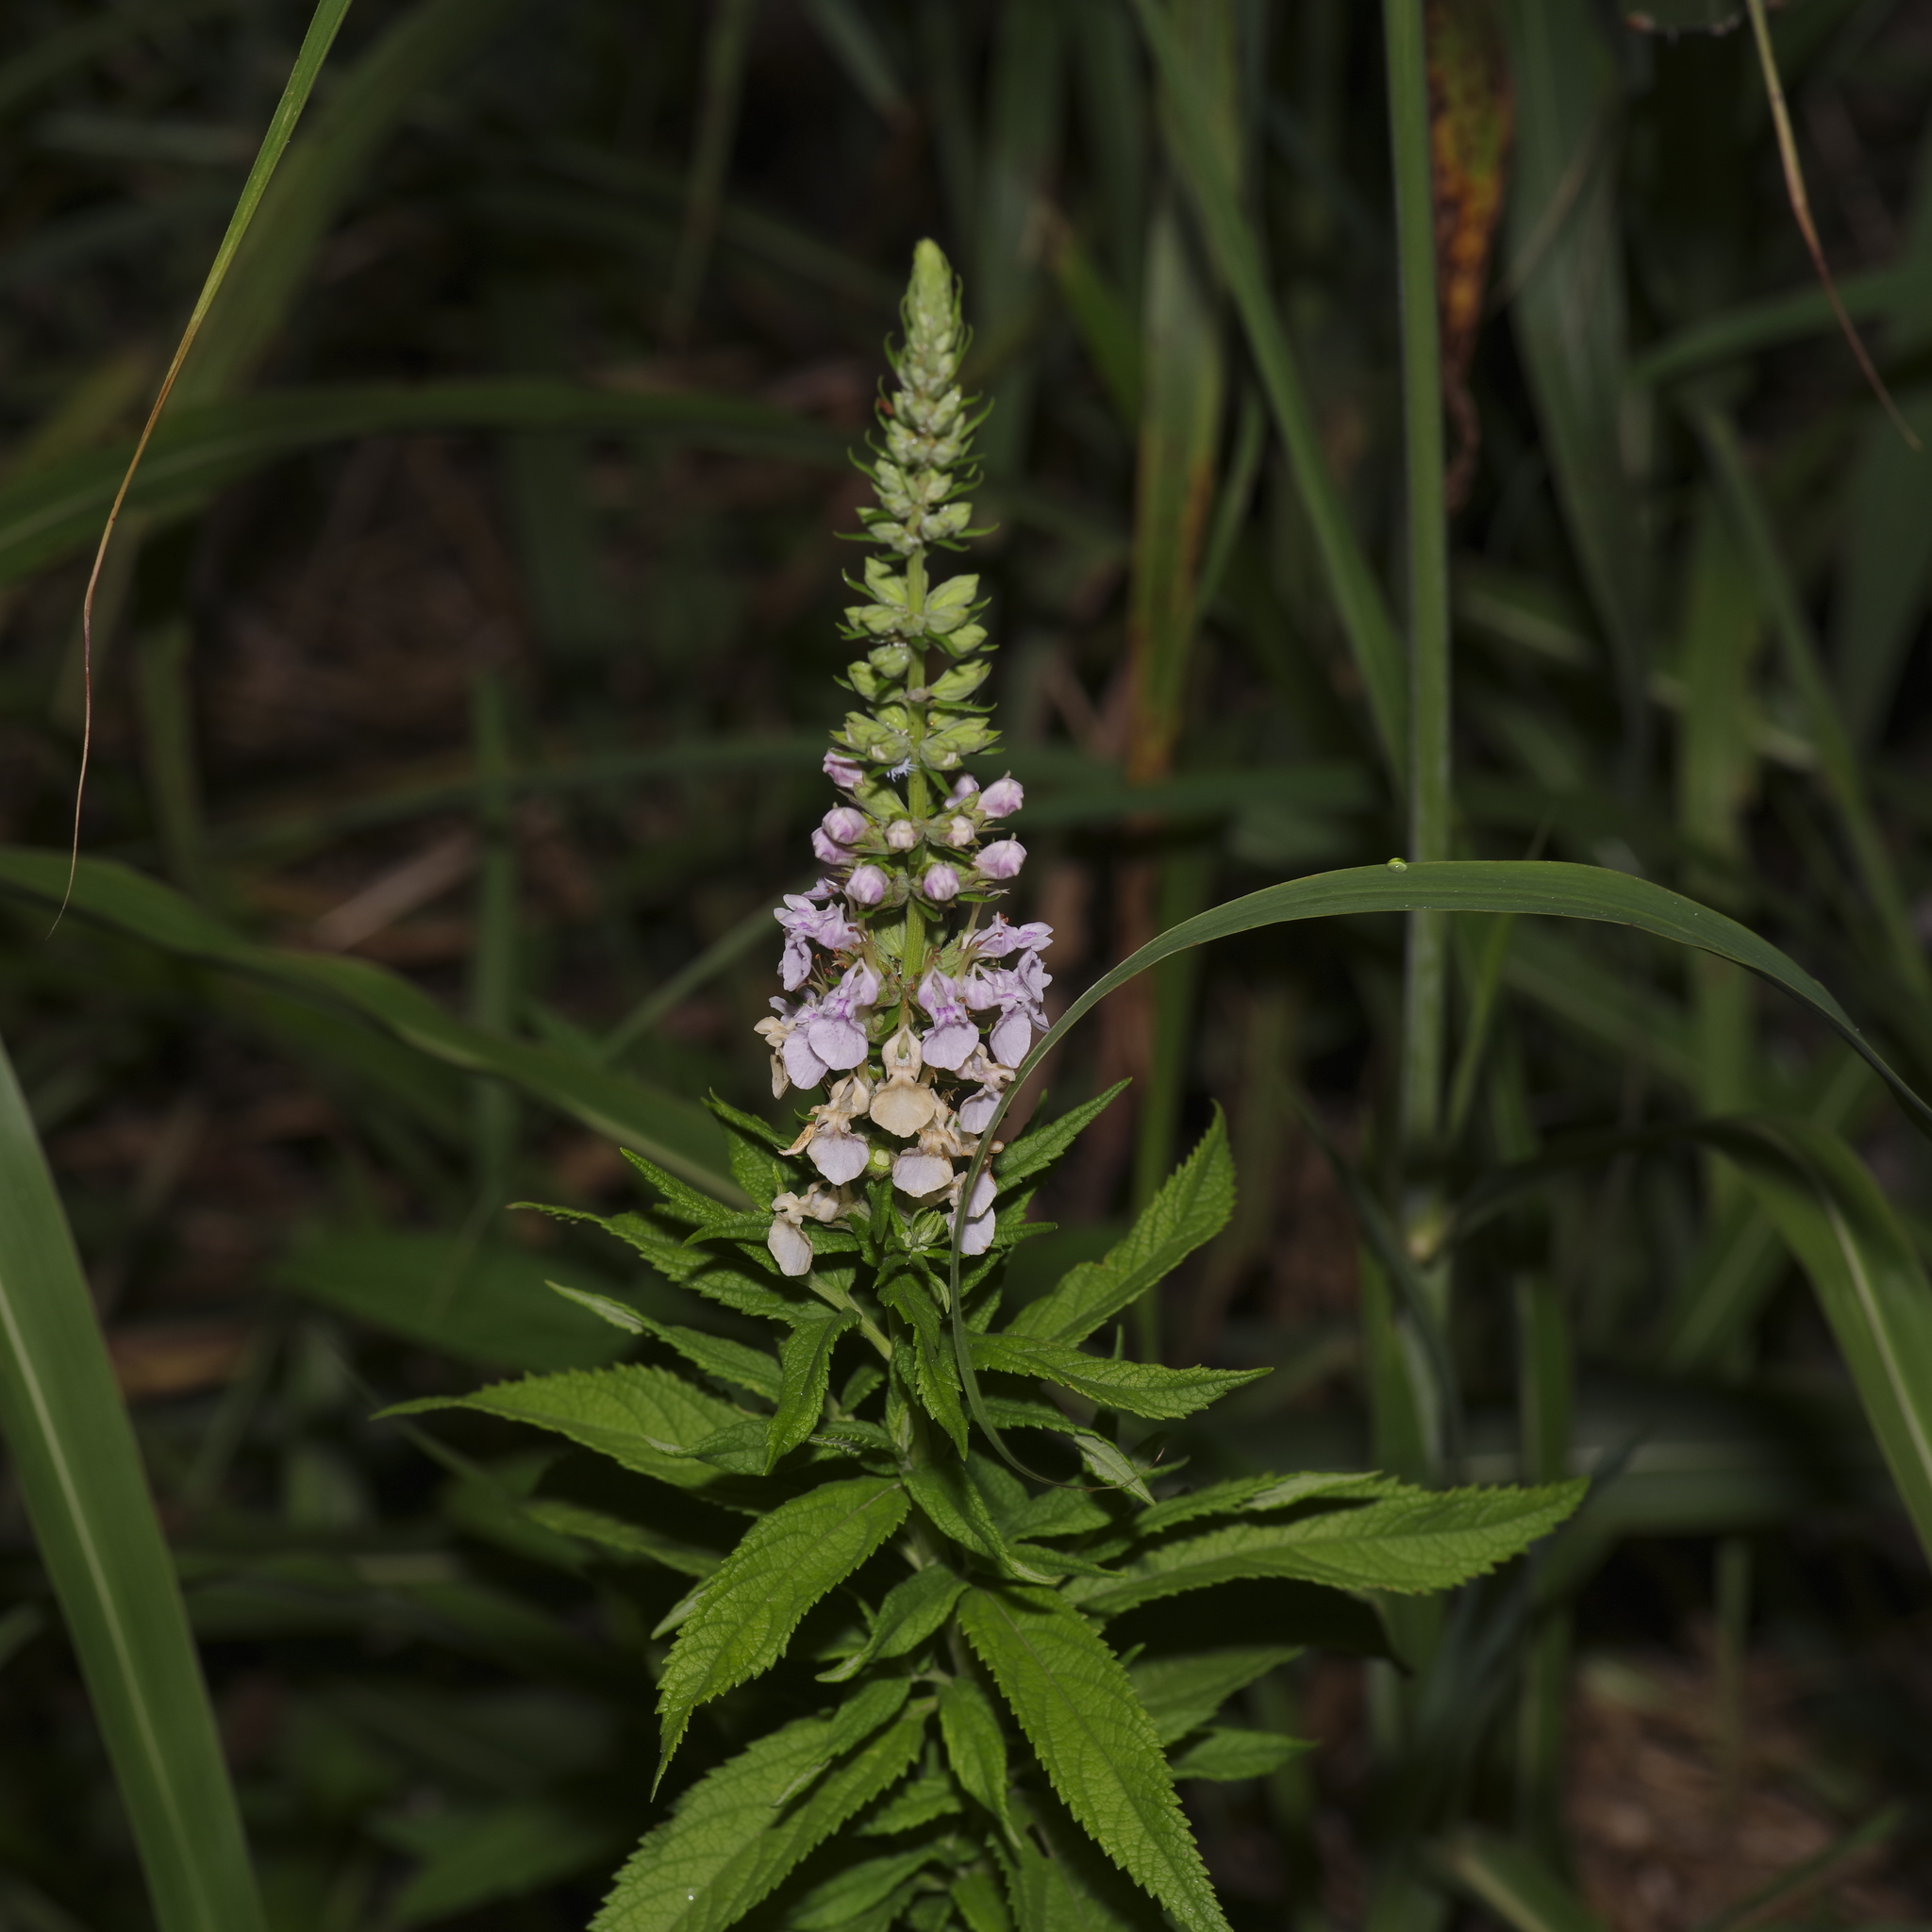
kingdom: Plantae
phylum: Tracheophyta
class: Magnoliopsida
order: Lamiales
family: Lamiaceae
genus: Teucrium
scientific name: Teucrium canadense
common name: American germander
